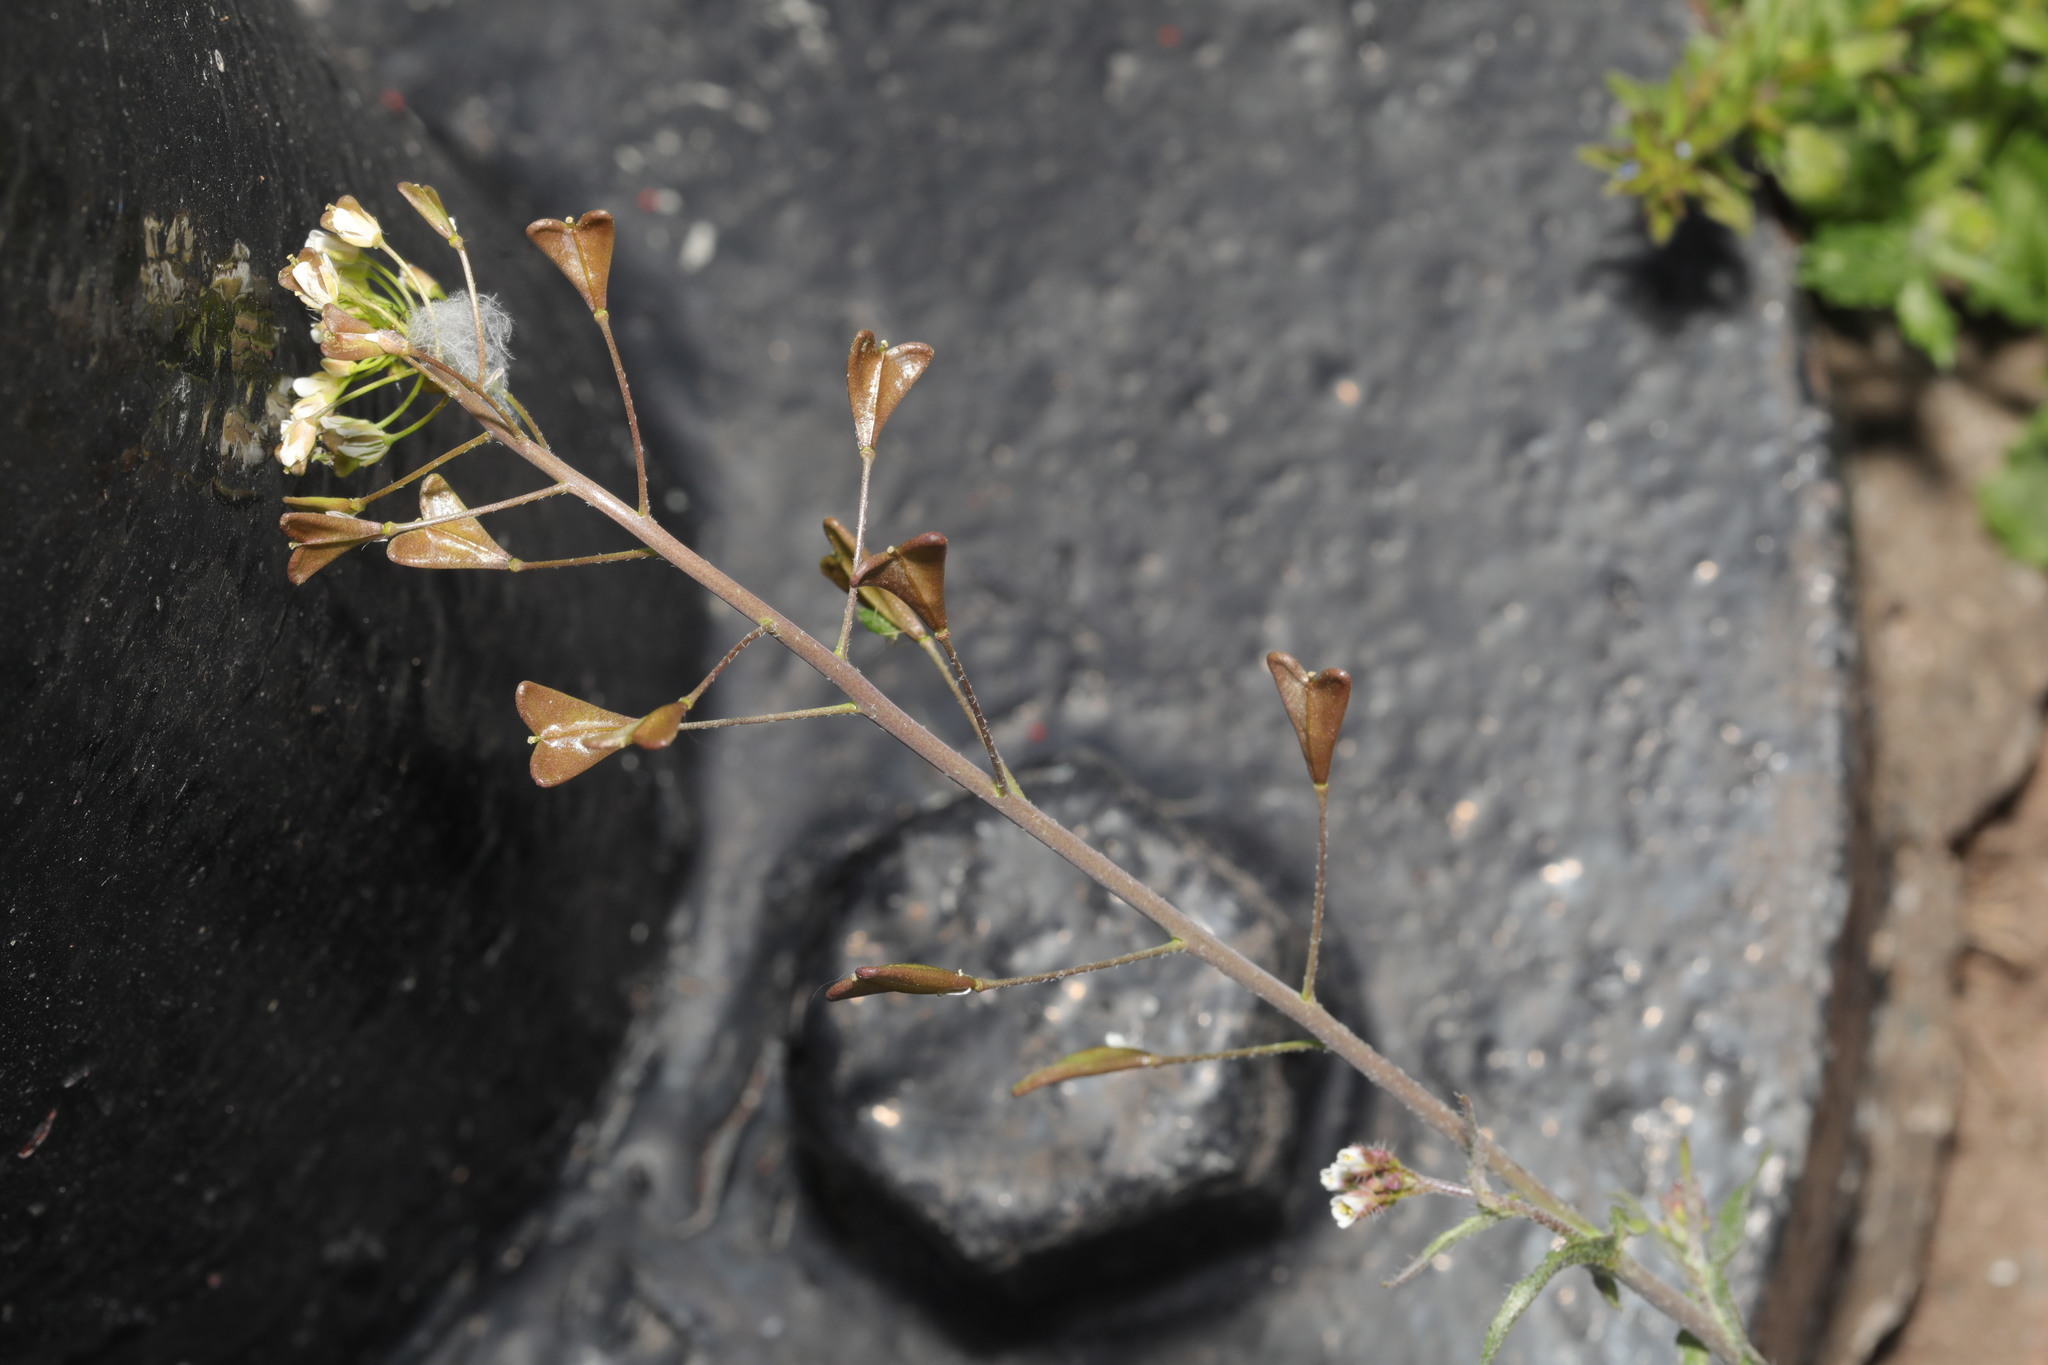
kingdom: Plantae
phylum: Tracheophyta
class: Magnoliopsida
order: Brassicales
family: Brassicaceae
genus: Capsella
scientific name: Capsella bursa-pastoris
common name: Shepherd's purse
